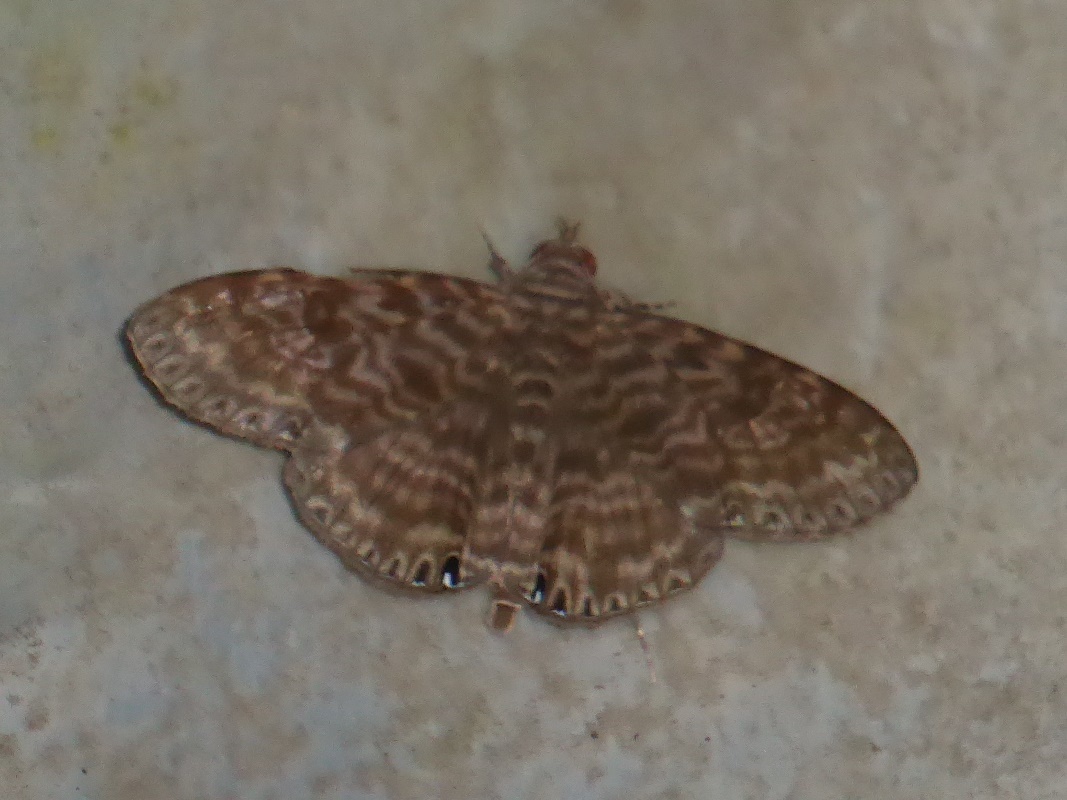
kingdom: Animalia
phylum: Arthropoda
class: Insecta
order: Lepidoptera
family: Erebidae
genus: Dialithis
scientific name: Dialithis gemmifera
